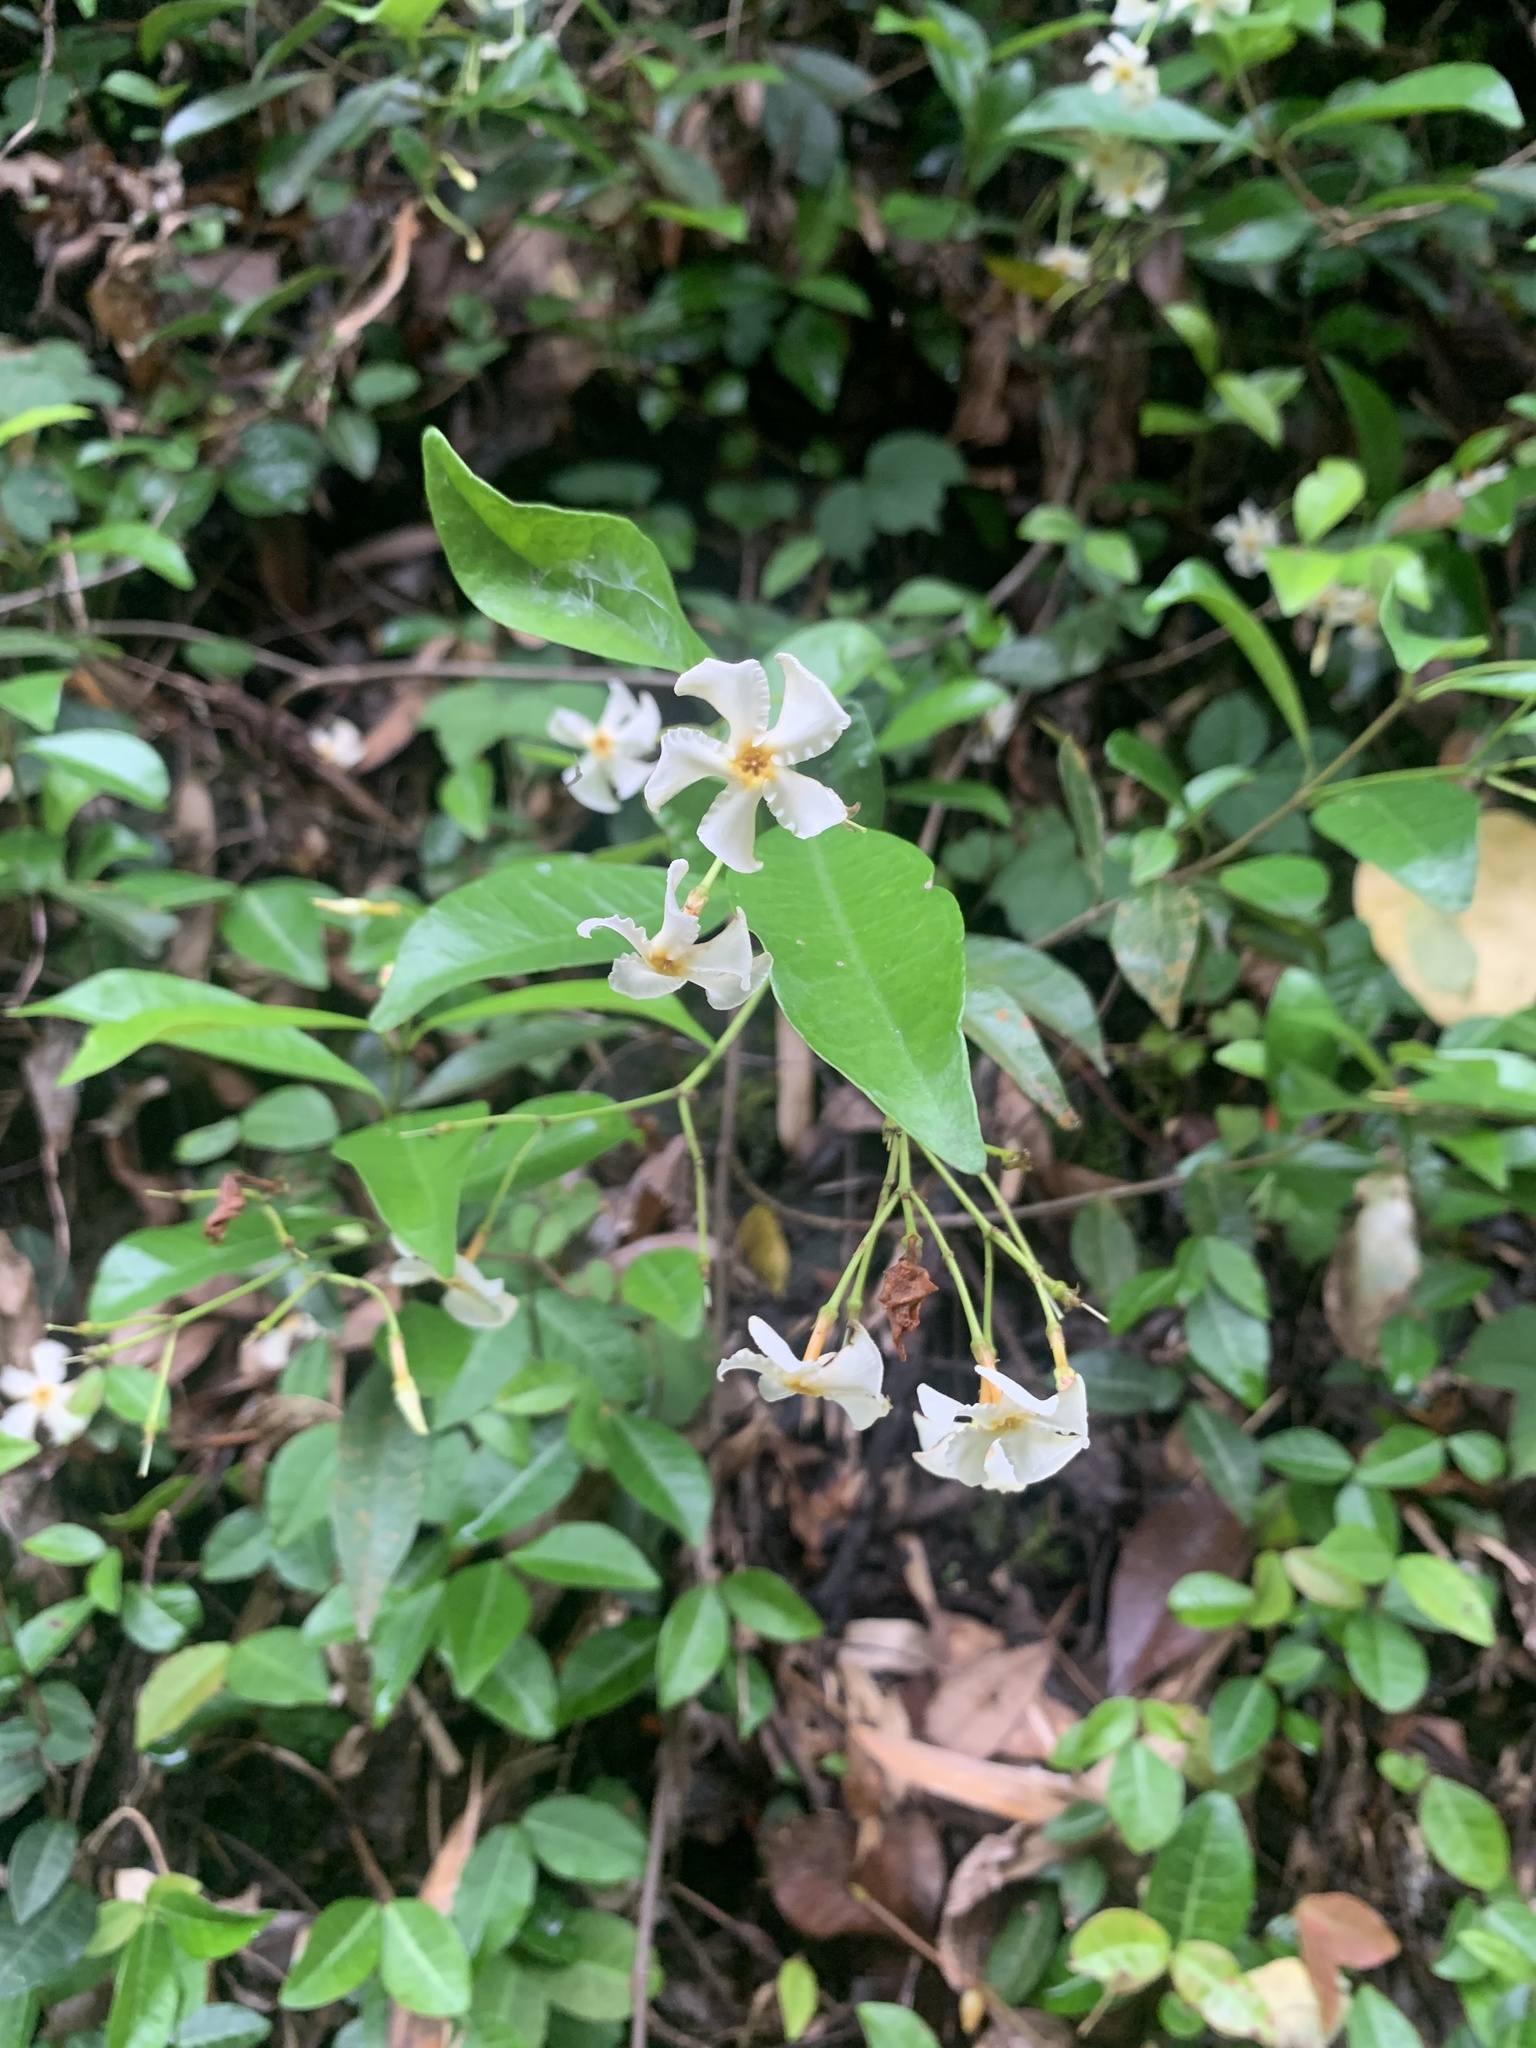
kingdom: Plantae
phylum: Tracheophyta
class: Magnoliopsida
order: Gentianales
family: Apocynaceae
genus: Trachelospermum
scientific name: Trachelospermum asiaticum
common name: Asiatic jasmine
